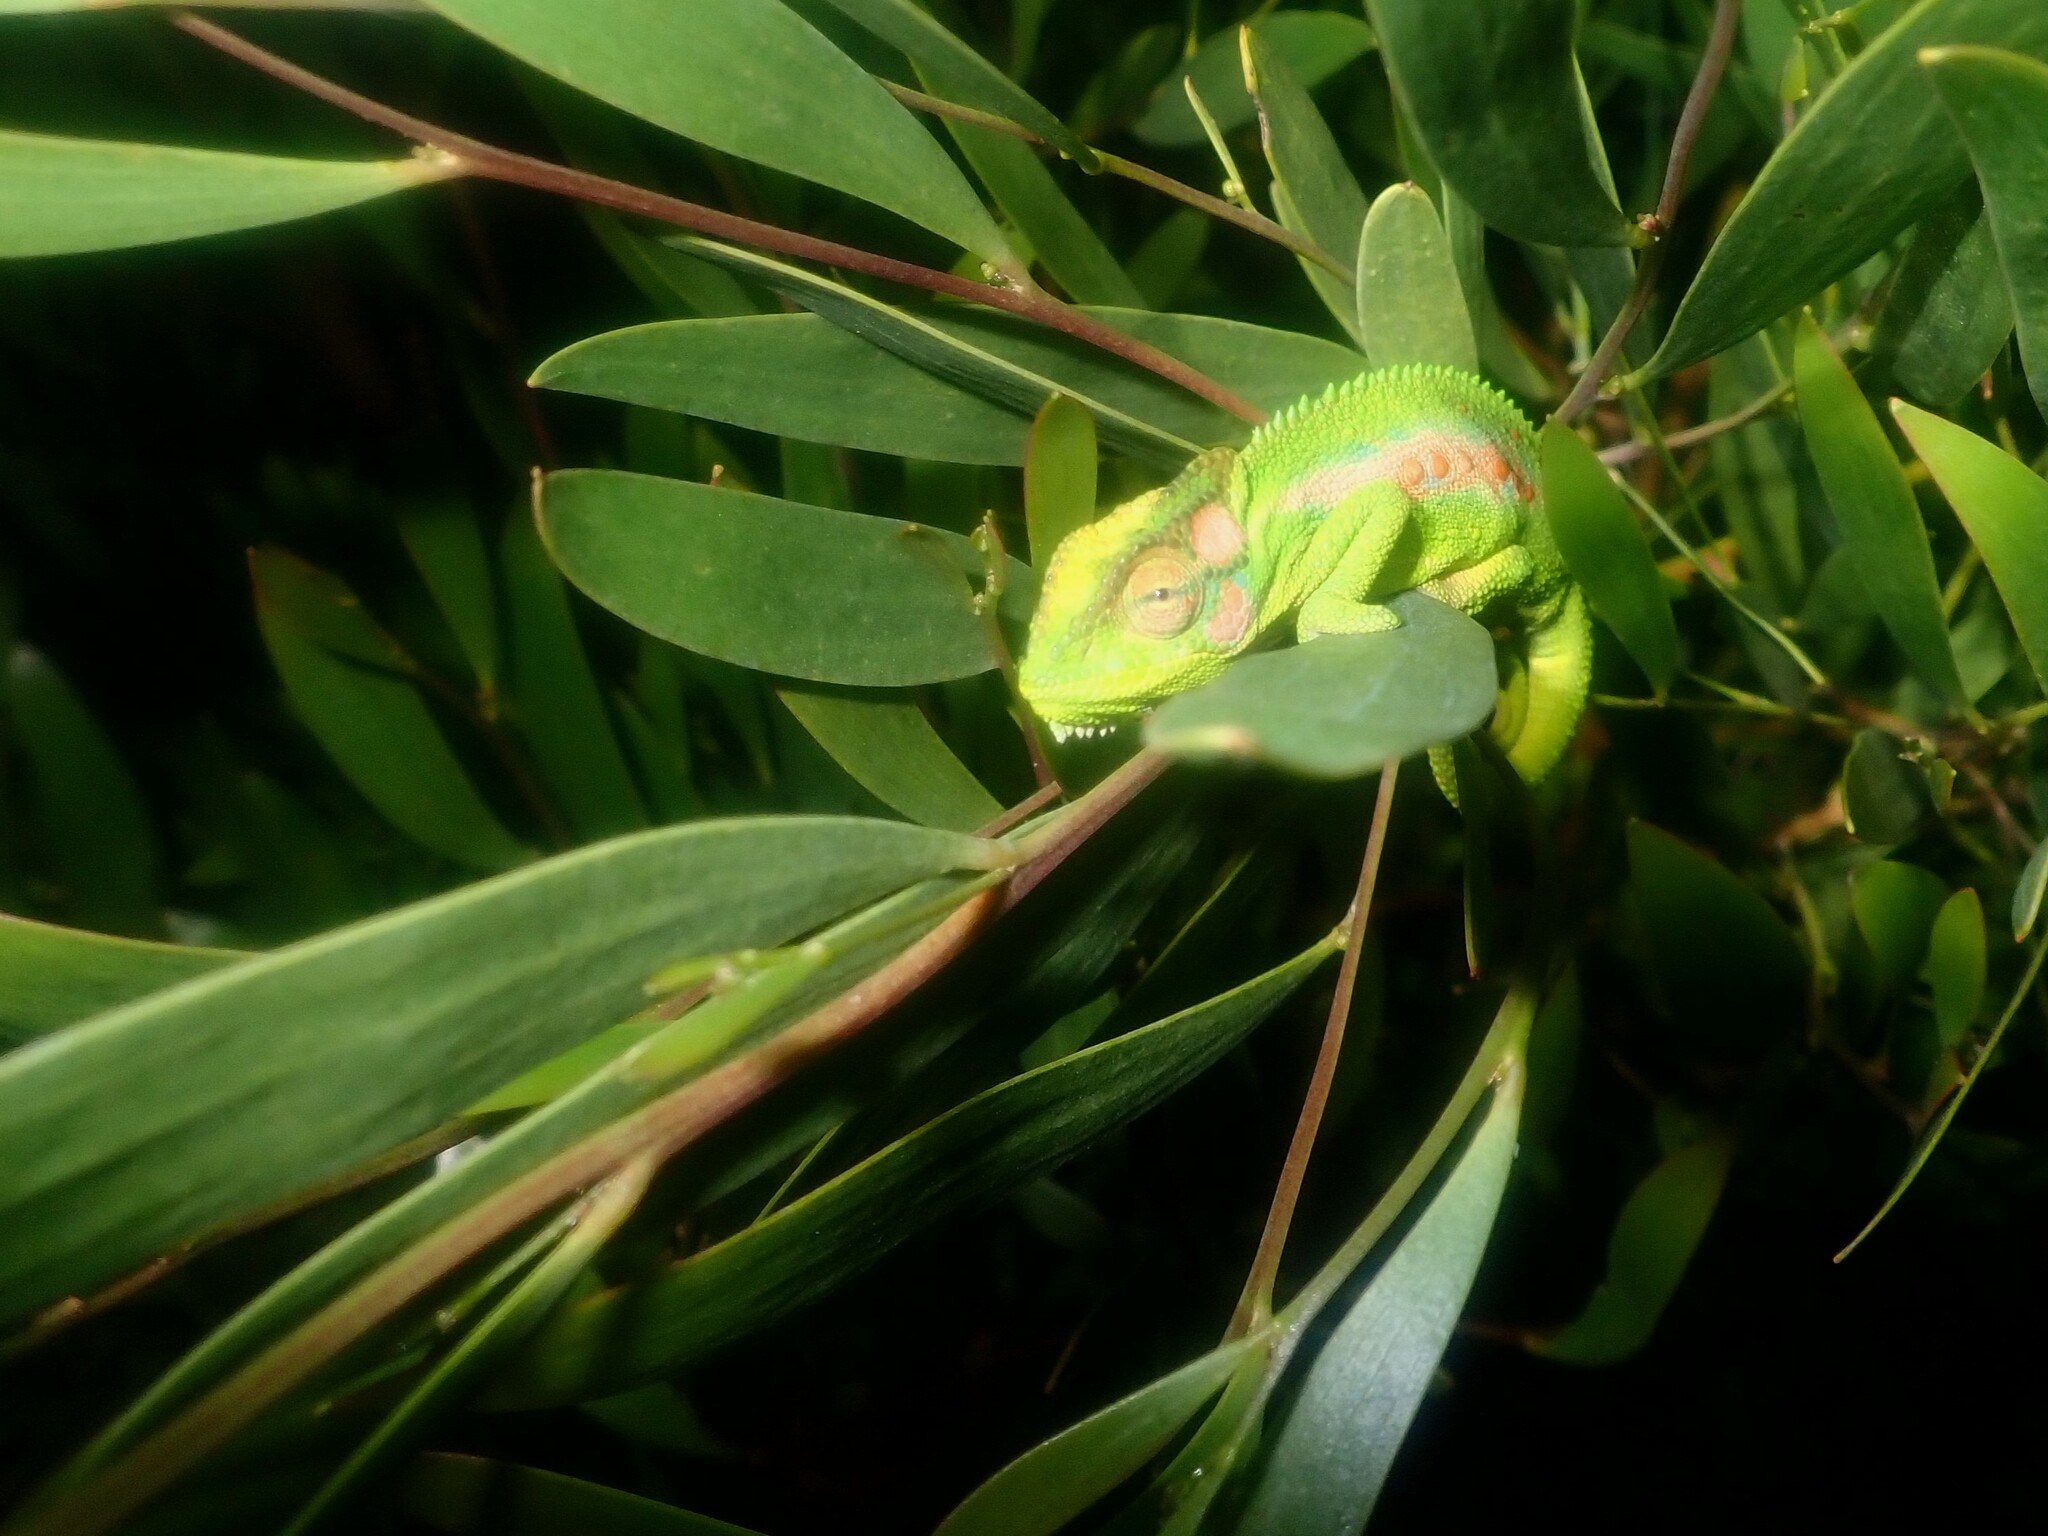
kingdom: Animalia
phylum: Chordata
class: Squamata
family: Chamaeleonidae
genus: Bradypodion
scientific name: Bradypodion pumilum
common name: Cape dwarf chameleon
